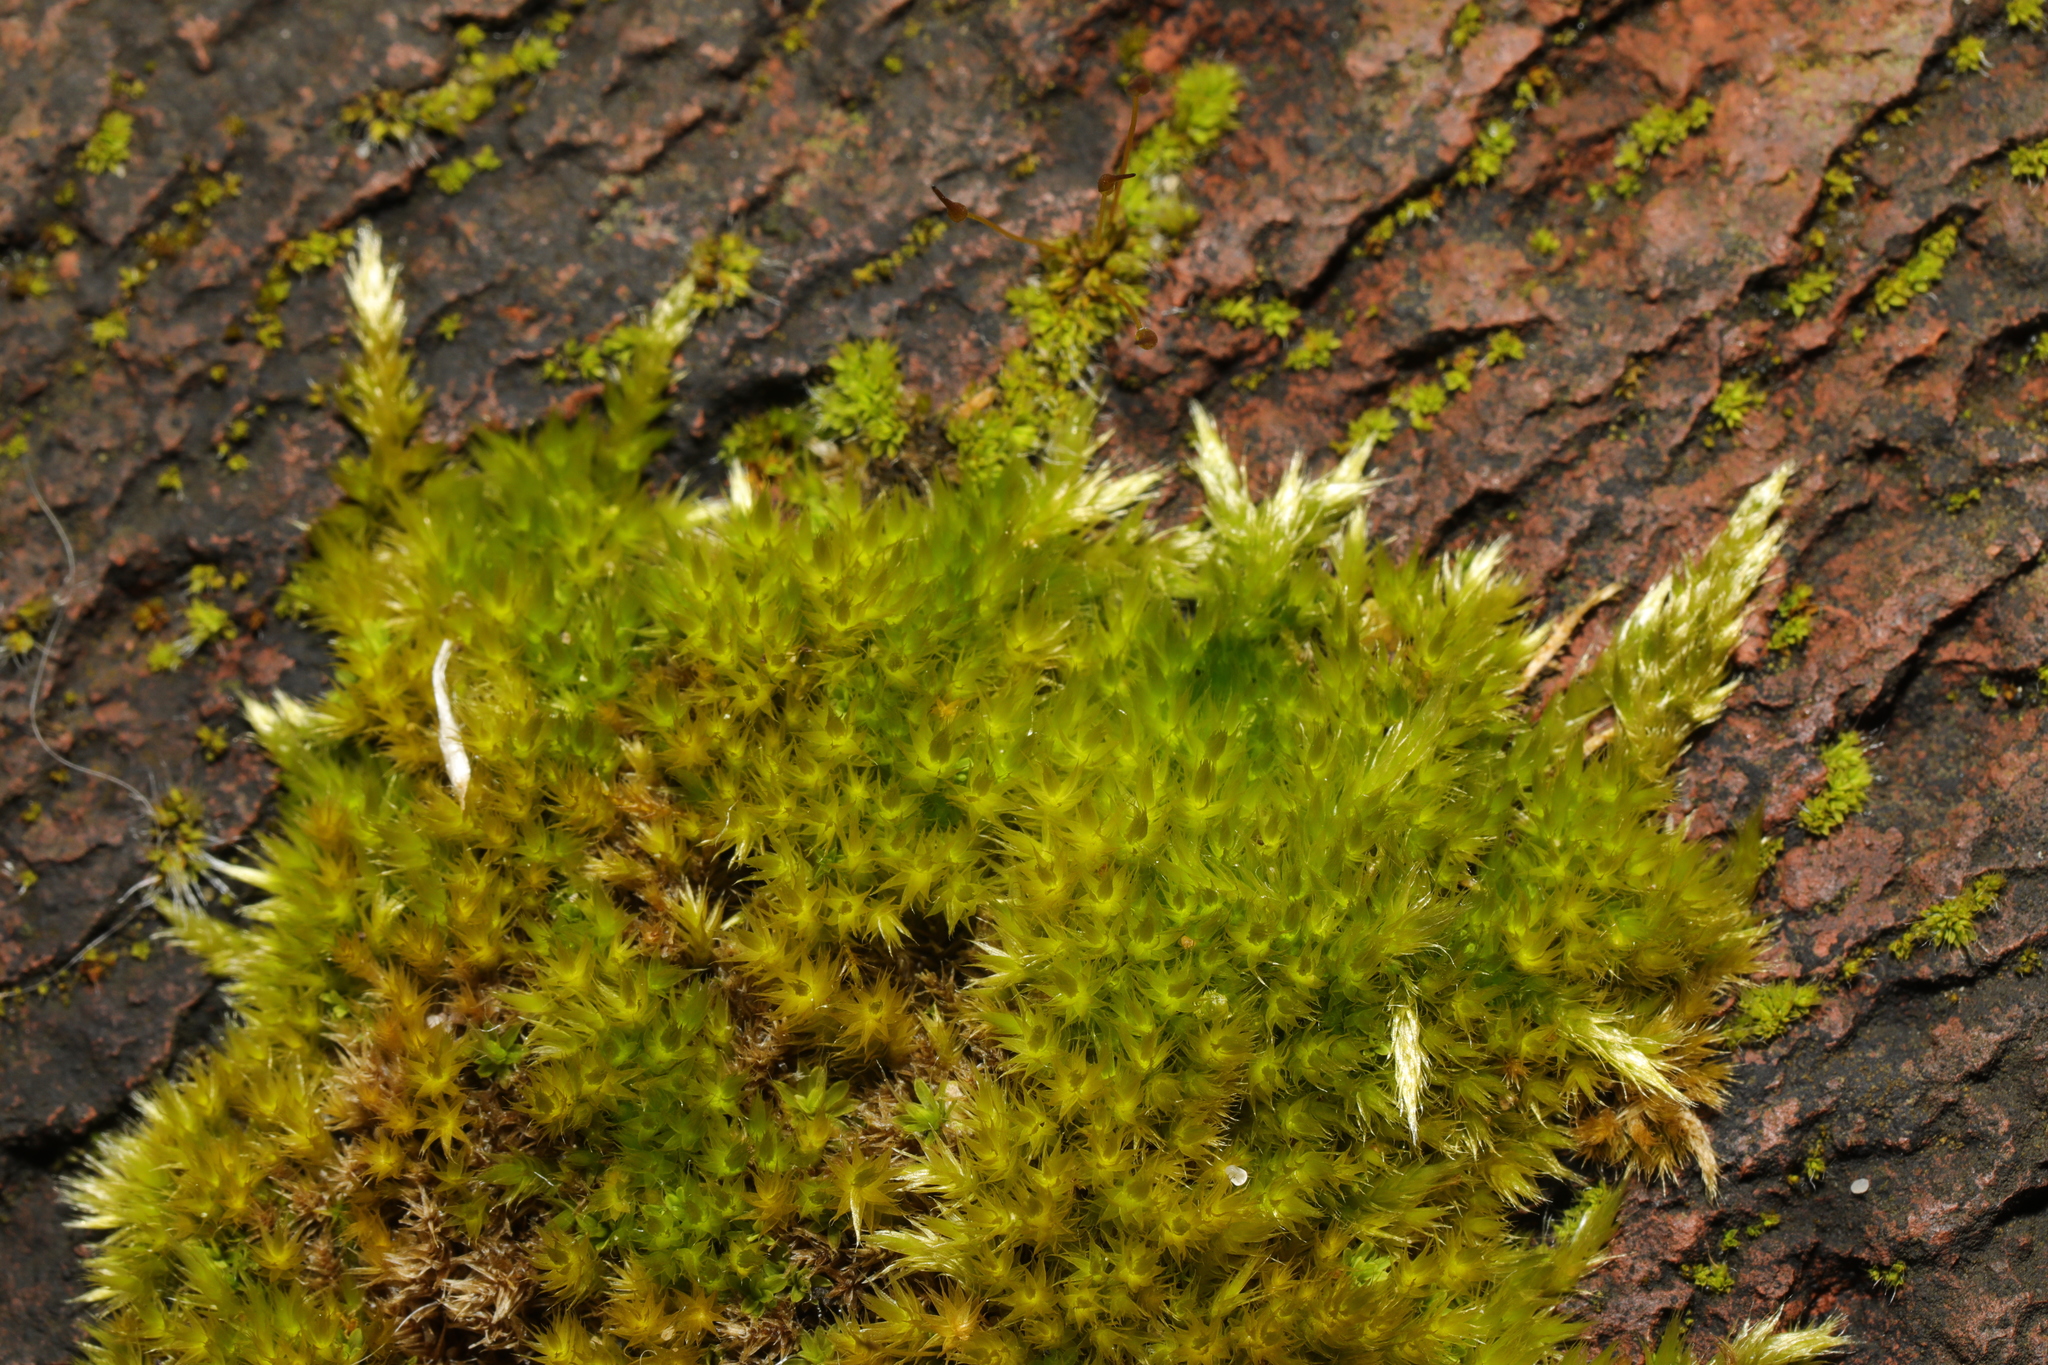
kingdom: Plantae
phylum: Bryophyta
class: Bryopsida
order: Hypnales
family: Brachytheciaceae
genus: Homalothecium
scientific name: Homalothecium sericeum
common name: Silky wall feather-moss
